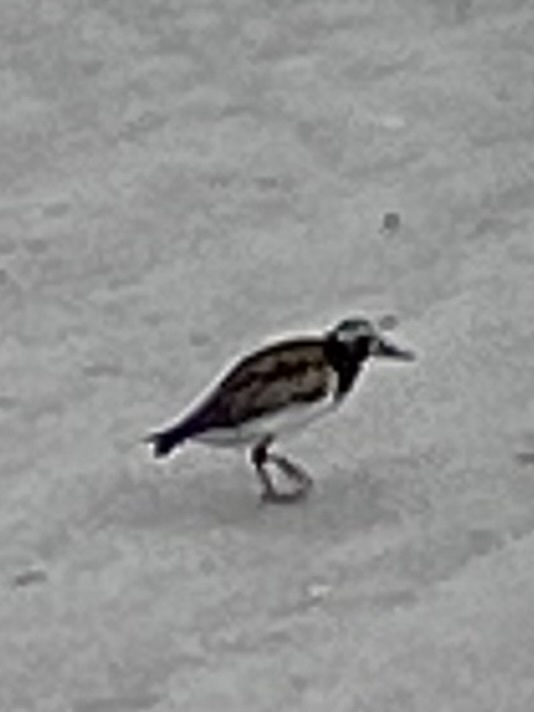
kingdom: Animalia
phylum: Chordata
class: Aves
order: Charadriiformes
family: Scolopacidae
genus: Arenaria
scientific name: Arenaria interpres
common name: Ruddy turnstone
